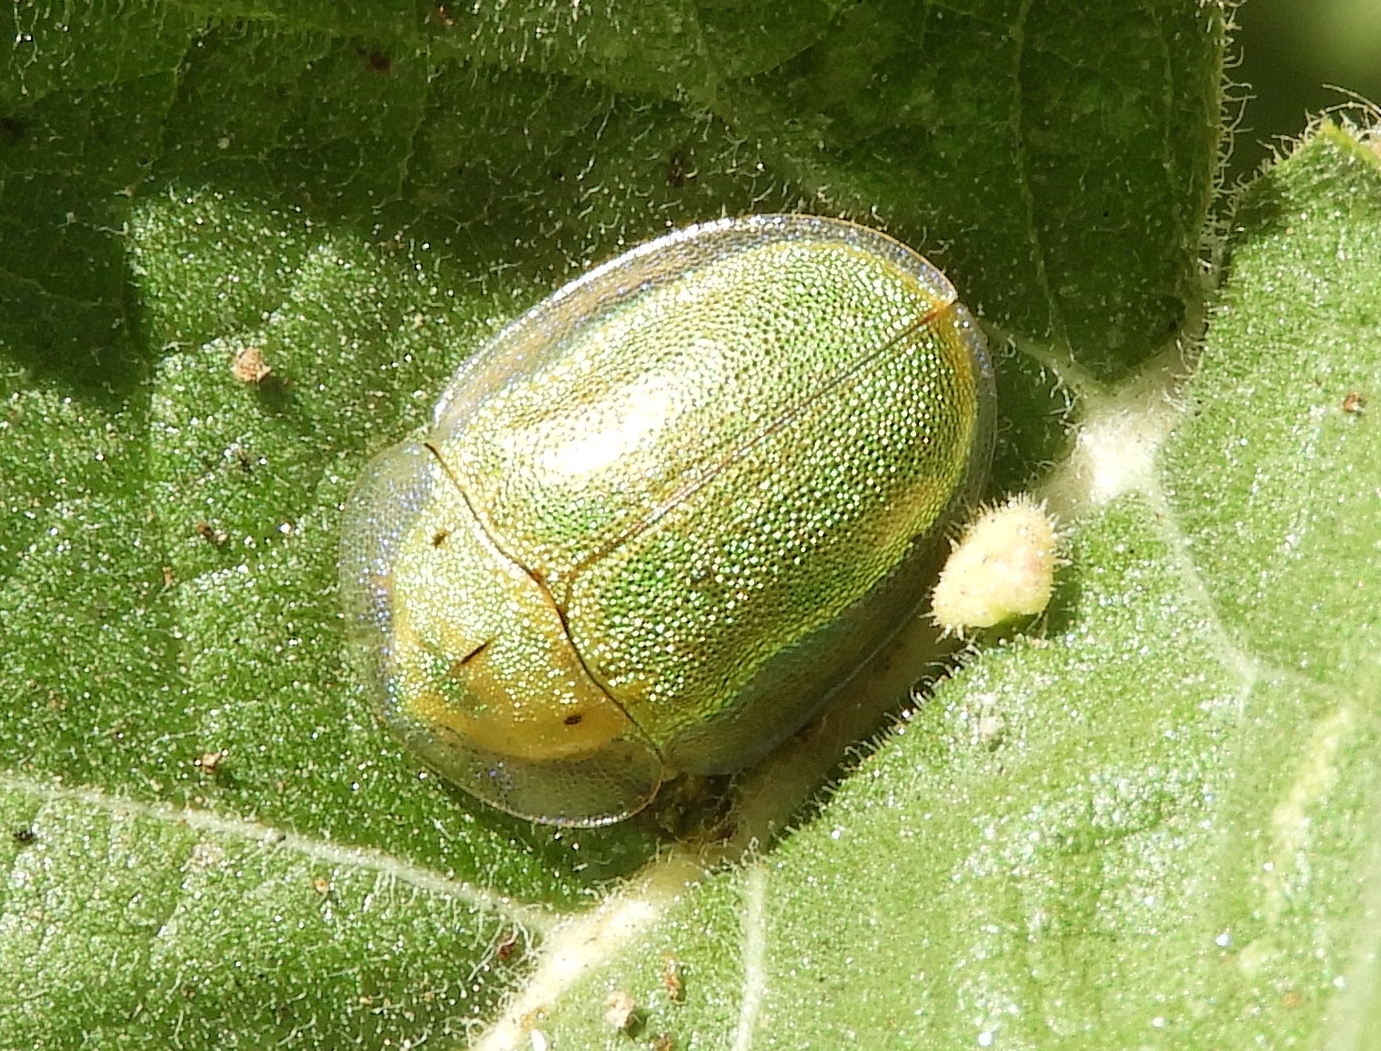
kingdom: Animalia
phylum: Arthropoda
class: Insecta
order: Coleoptera
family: Chrysomelidae
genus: Physonota
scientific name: Physonota arizonae
